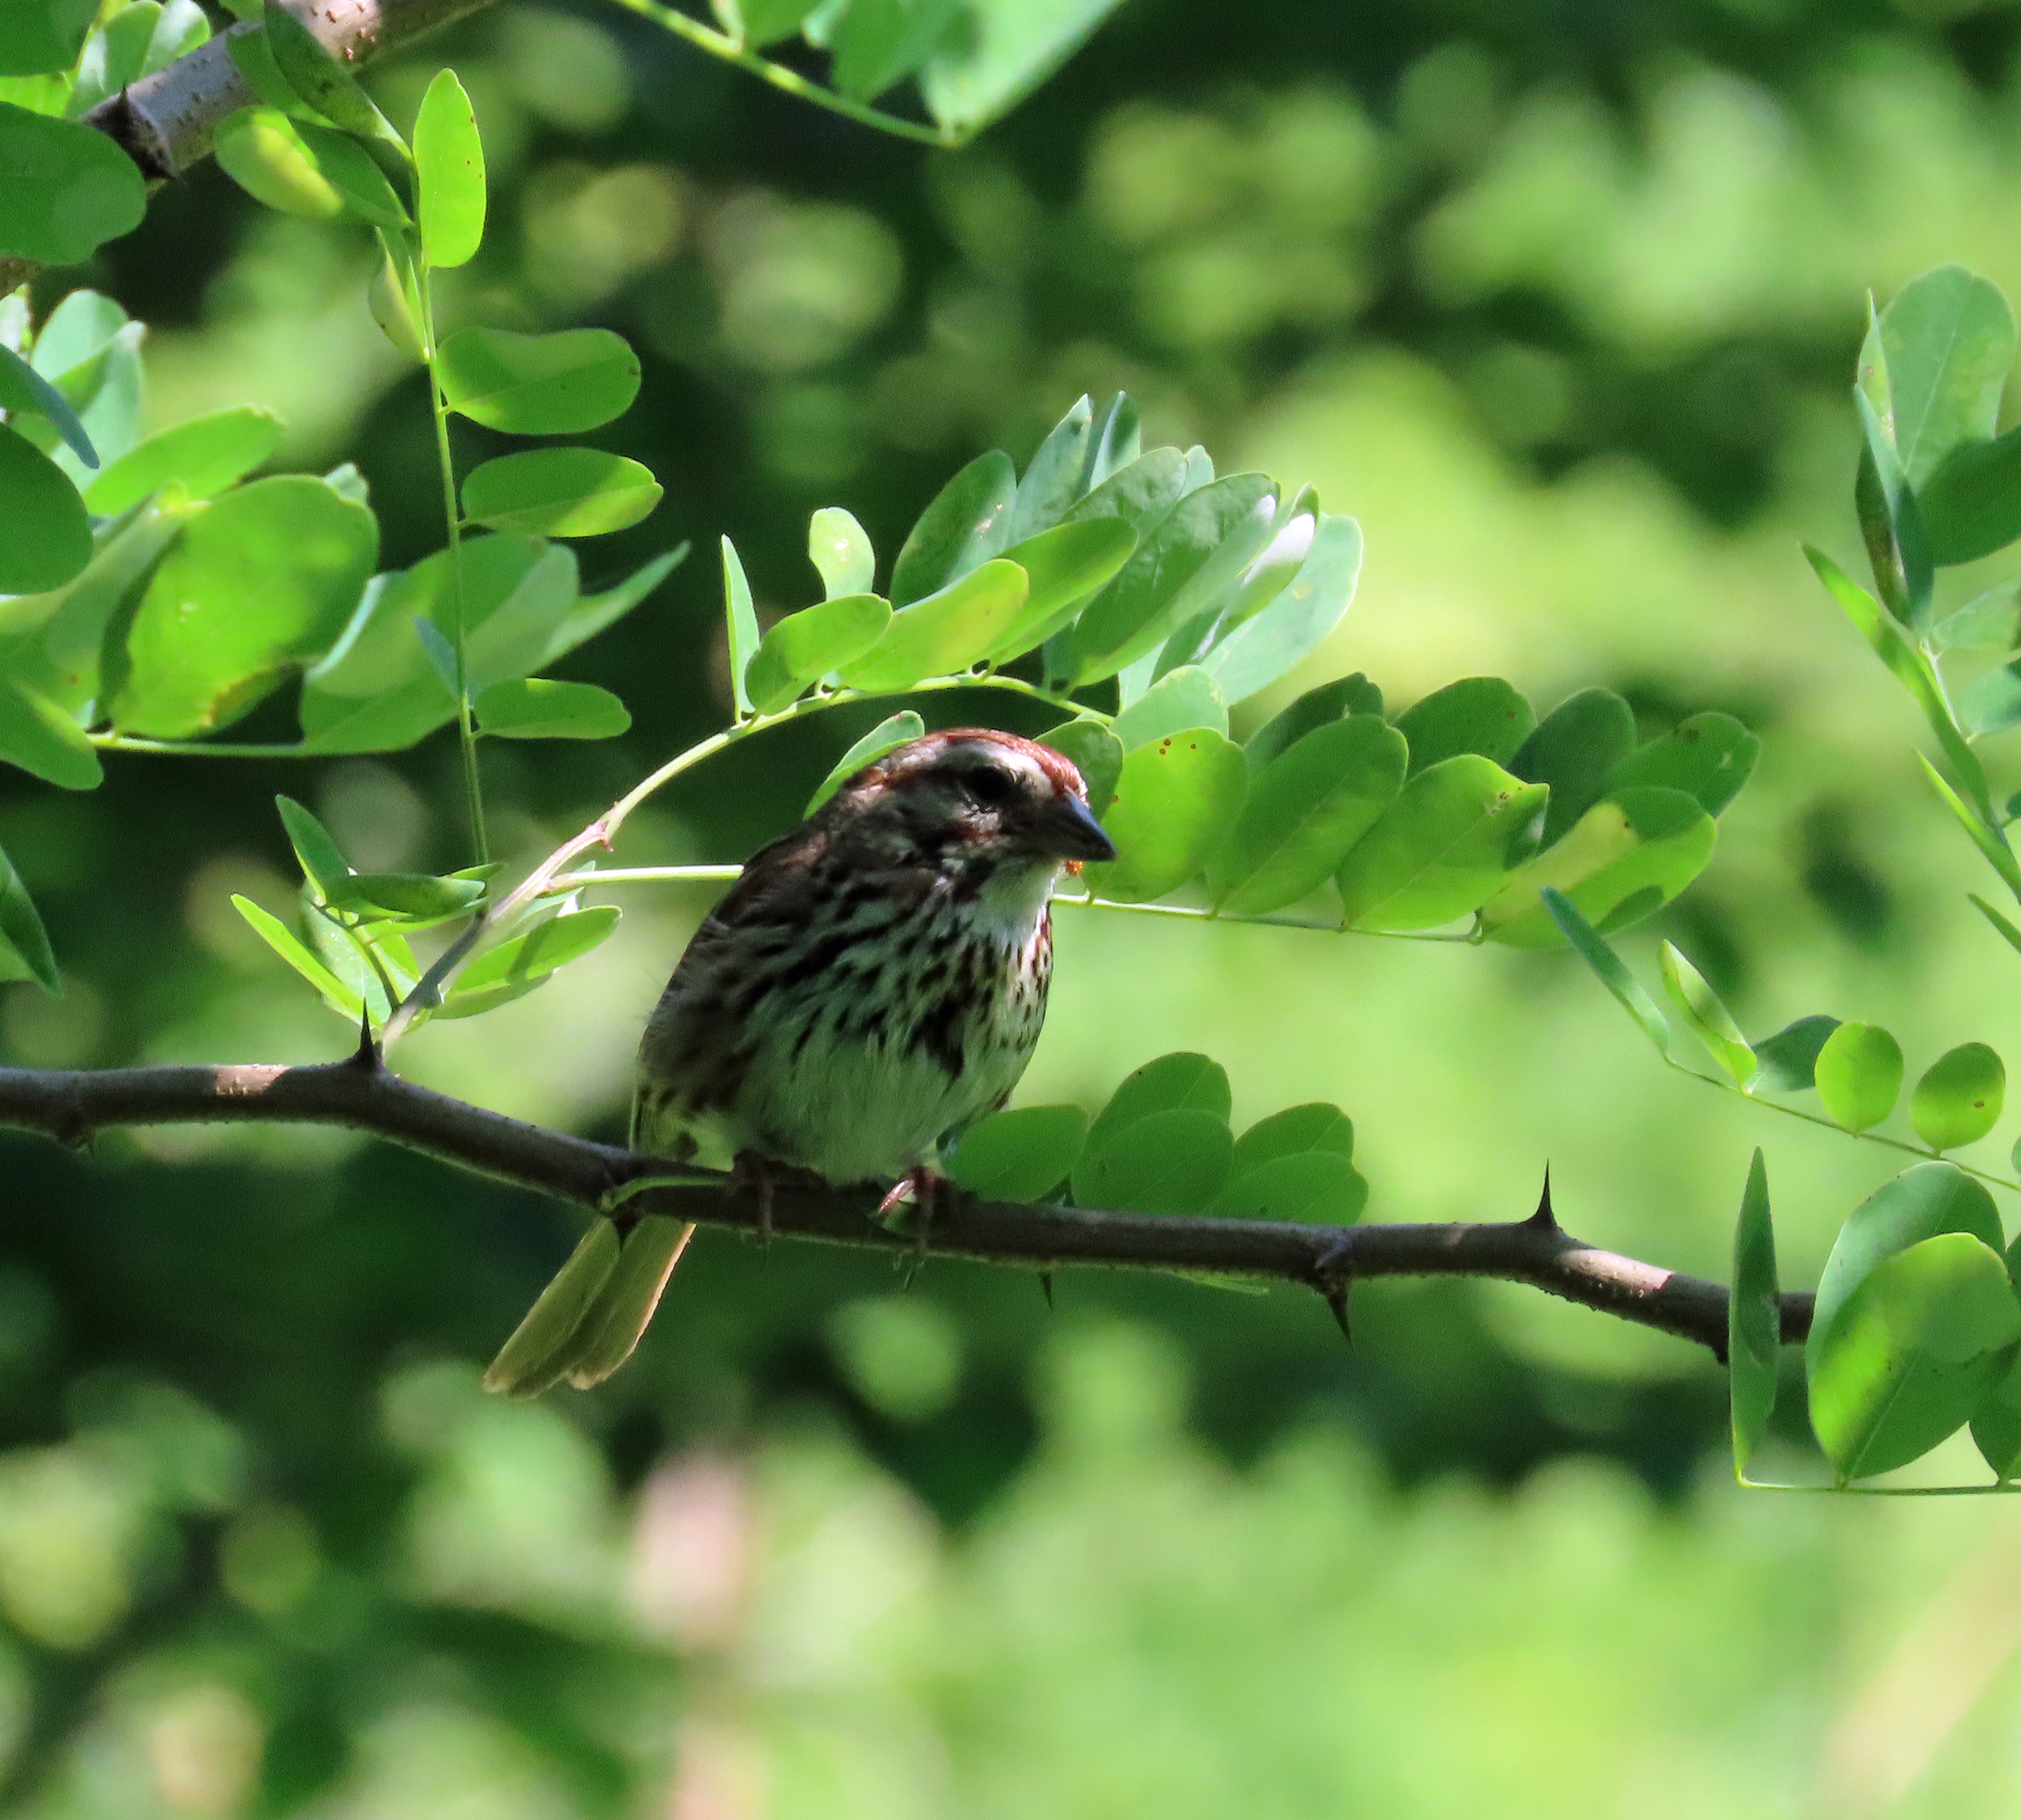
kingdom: Animalia
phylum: Chordata
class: Aves
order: Passeriformes
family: Passerellidae
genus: Melospiza
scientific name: Melospiza melodia
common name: Song sparrow
